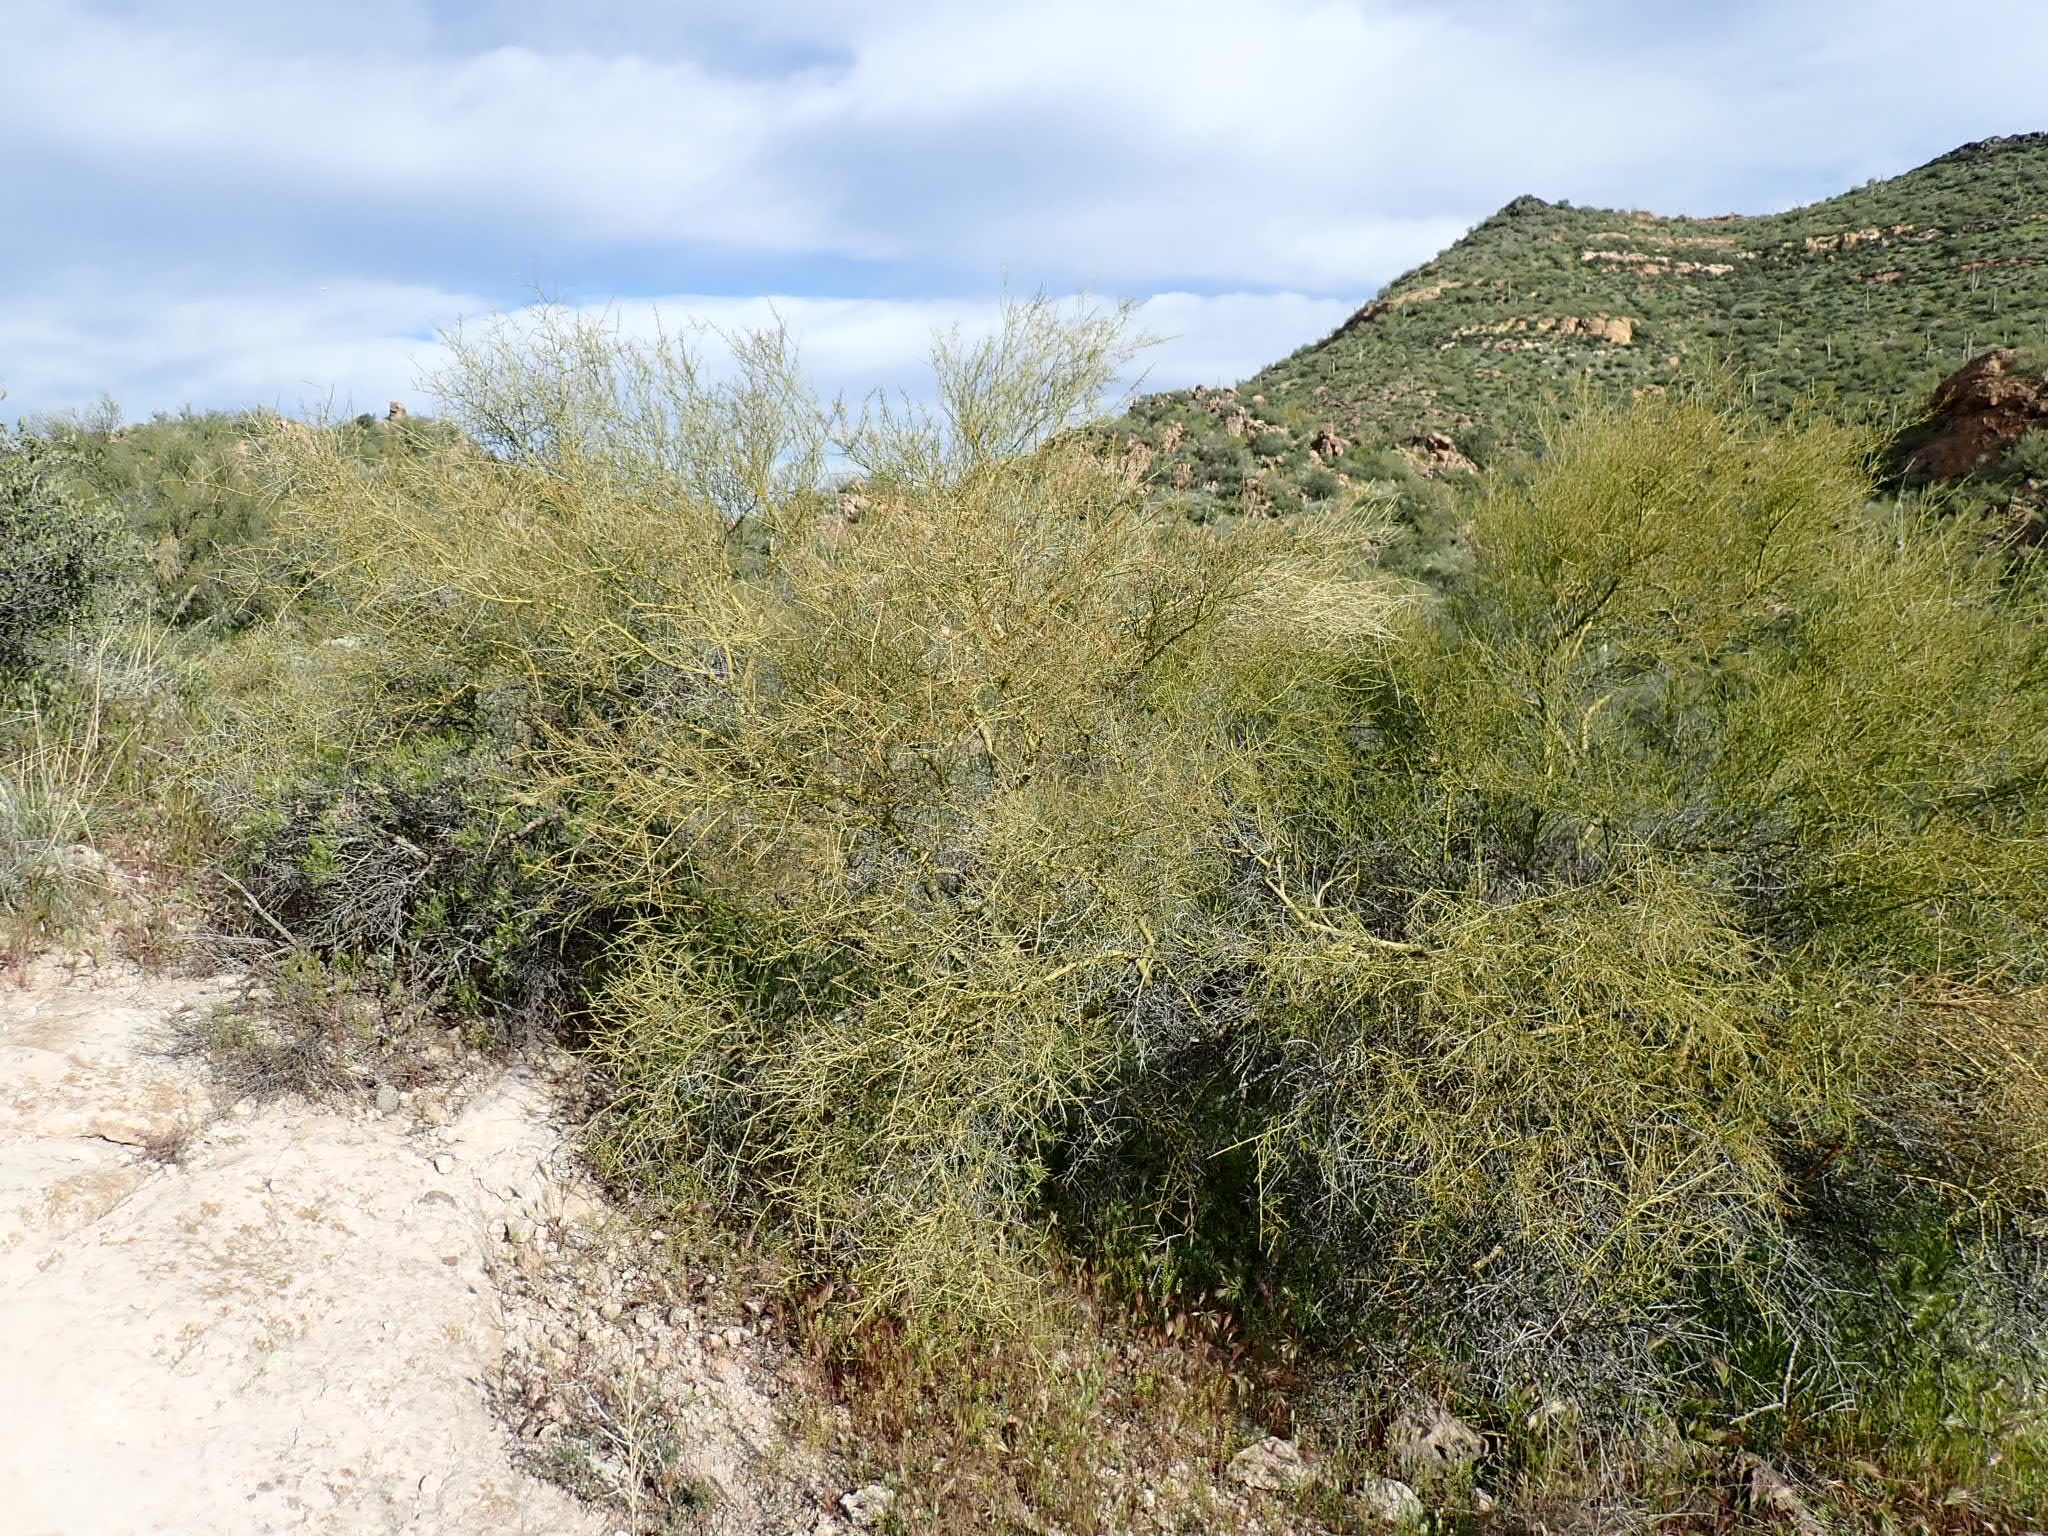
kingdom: Plantae
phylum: Tracheophyta
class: Magnoliopsida
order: Fabales
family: Fabaceae
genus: Parkinsonia
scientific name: Parkinsonia microphylla
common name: Yellow paloverde
